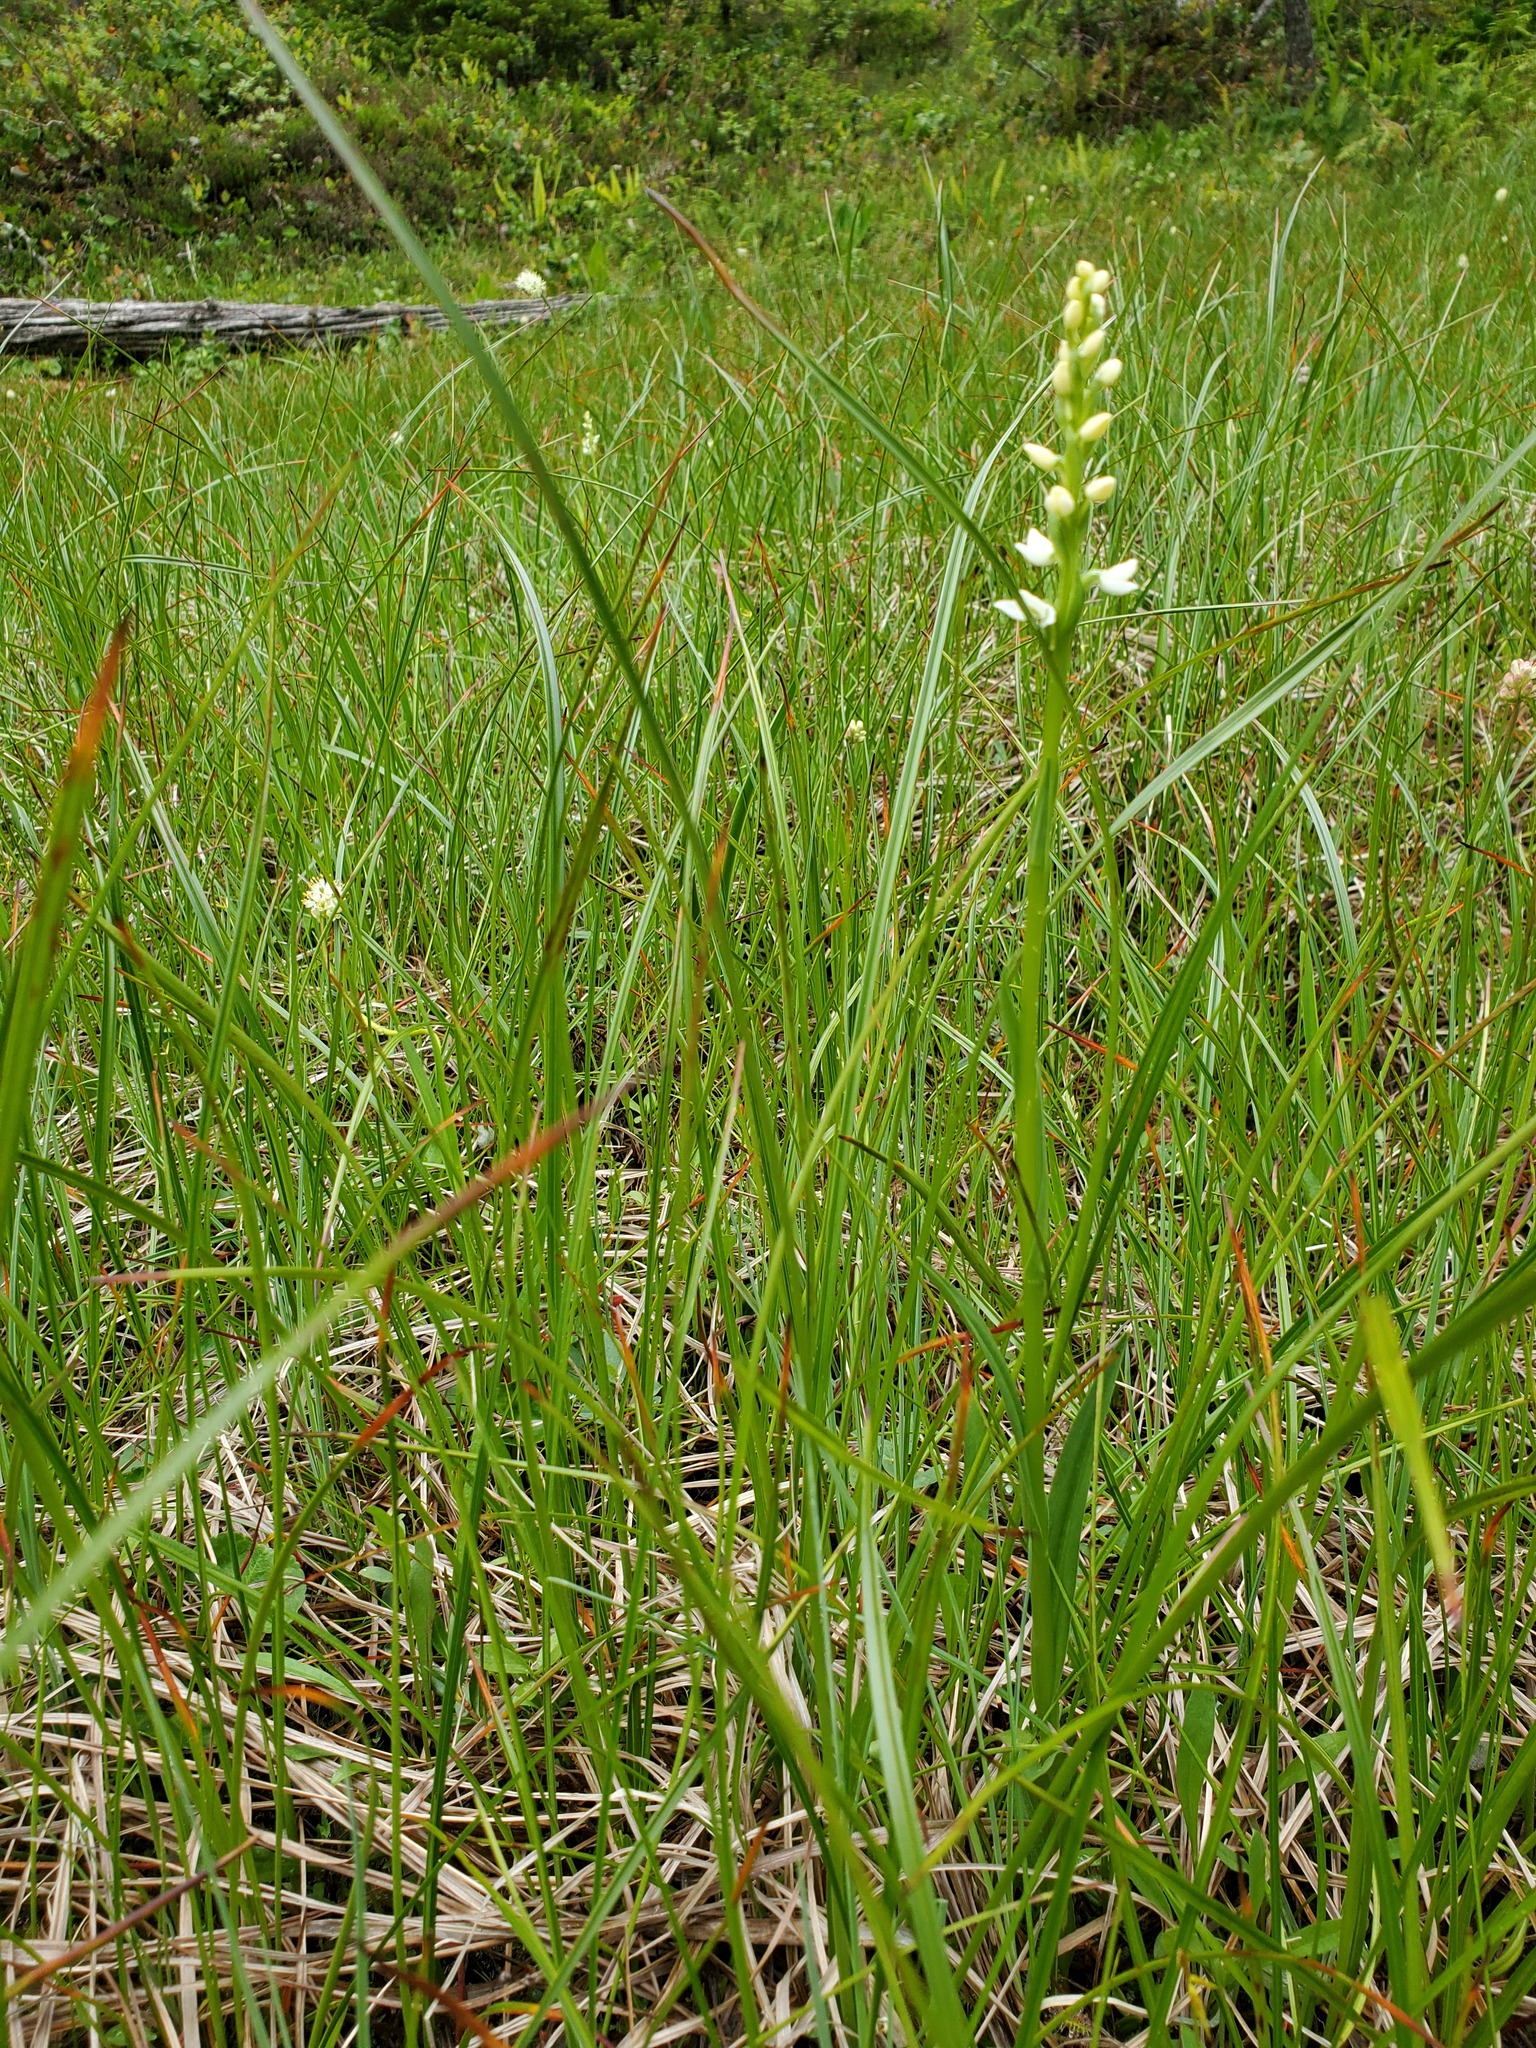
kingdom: Plantae
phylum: Tracheophyta
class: Liliopsida
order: Asparagales
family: Orchidaceae
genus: Platanthera
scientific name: Platanthera dilatata
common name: Bog candles
